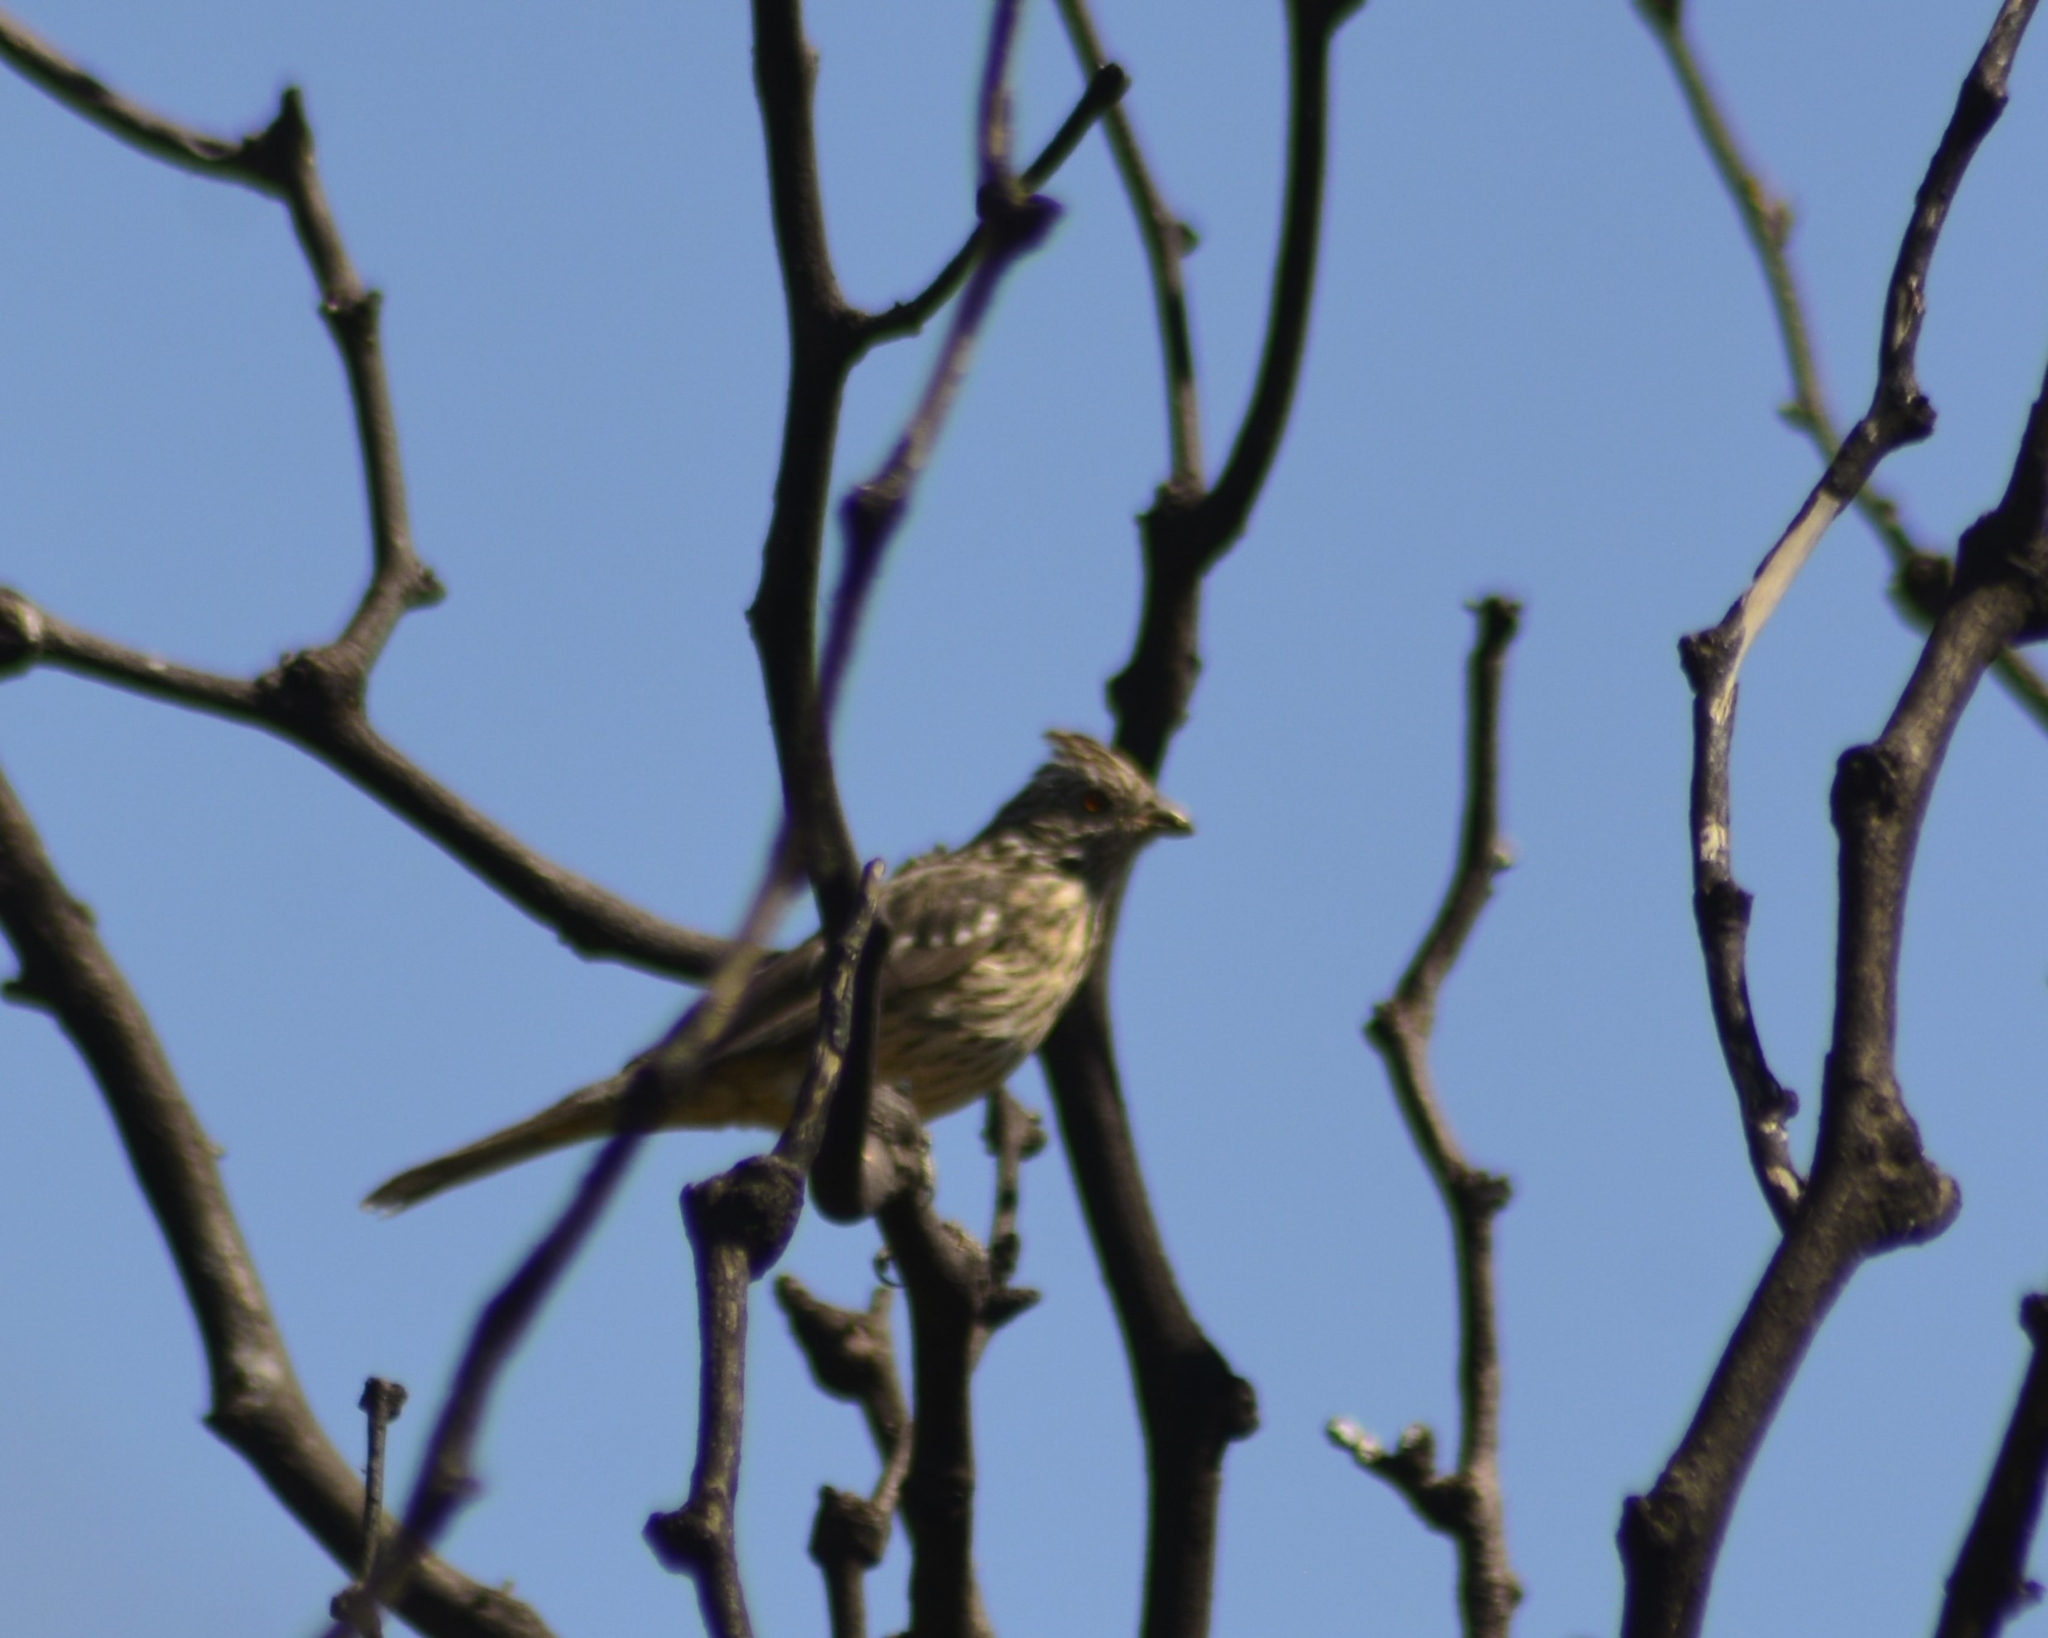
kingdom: Animalia
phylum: Chordata
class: Aves
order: Passeriformes
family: Cotingidae
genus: Phytotoma
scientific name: Phytotoma rutila
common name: White-tipped plantcutter
